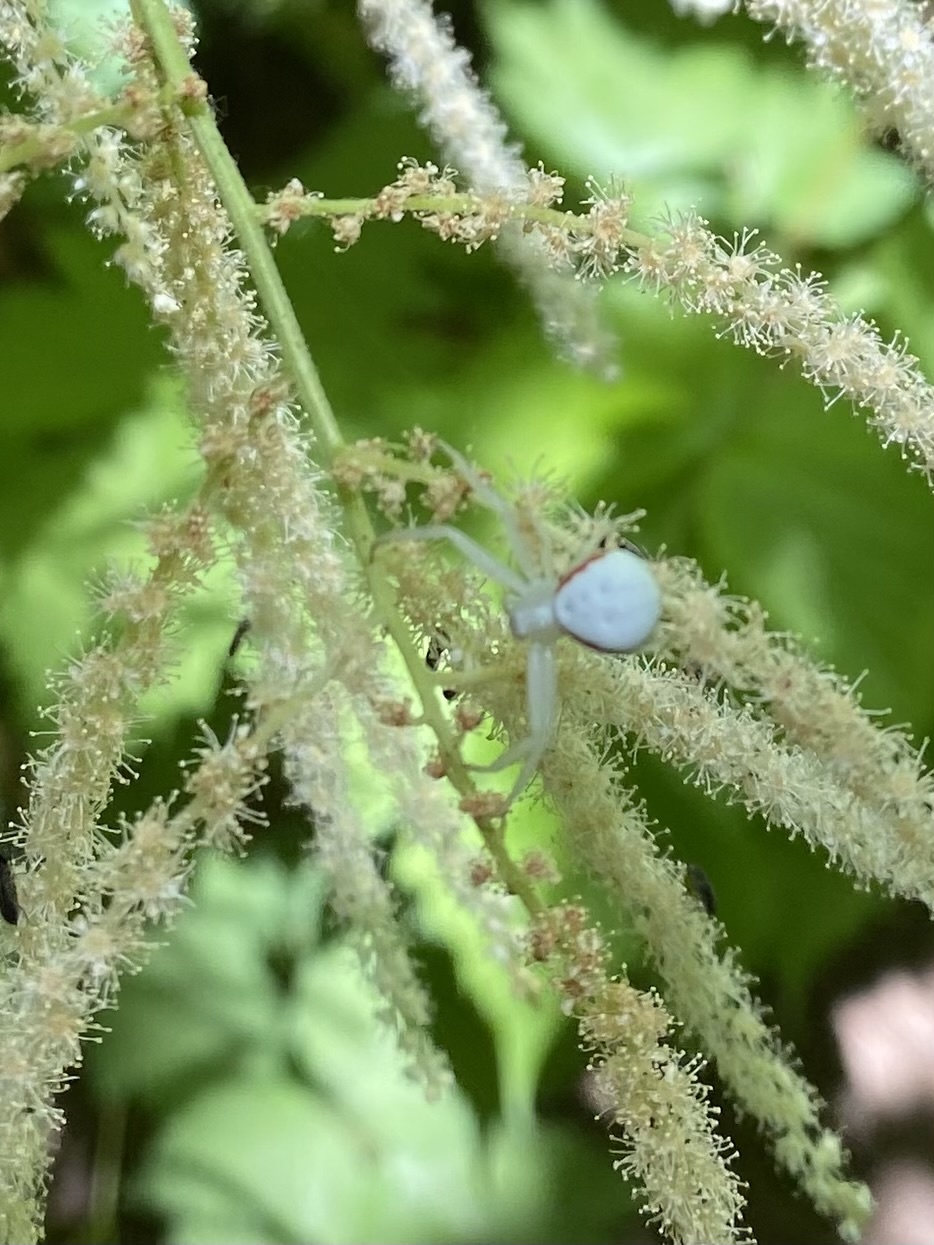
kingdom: Animalia
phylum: Arthropoda
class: Arachnida
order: Araneae
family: Thomisidae
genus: Misumena
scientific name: Misumena vatia
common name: Goldenrod crab spider
